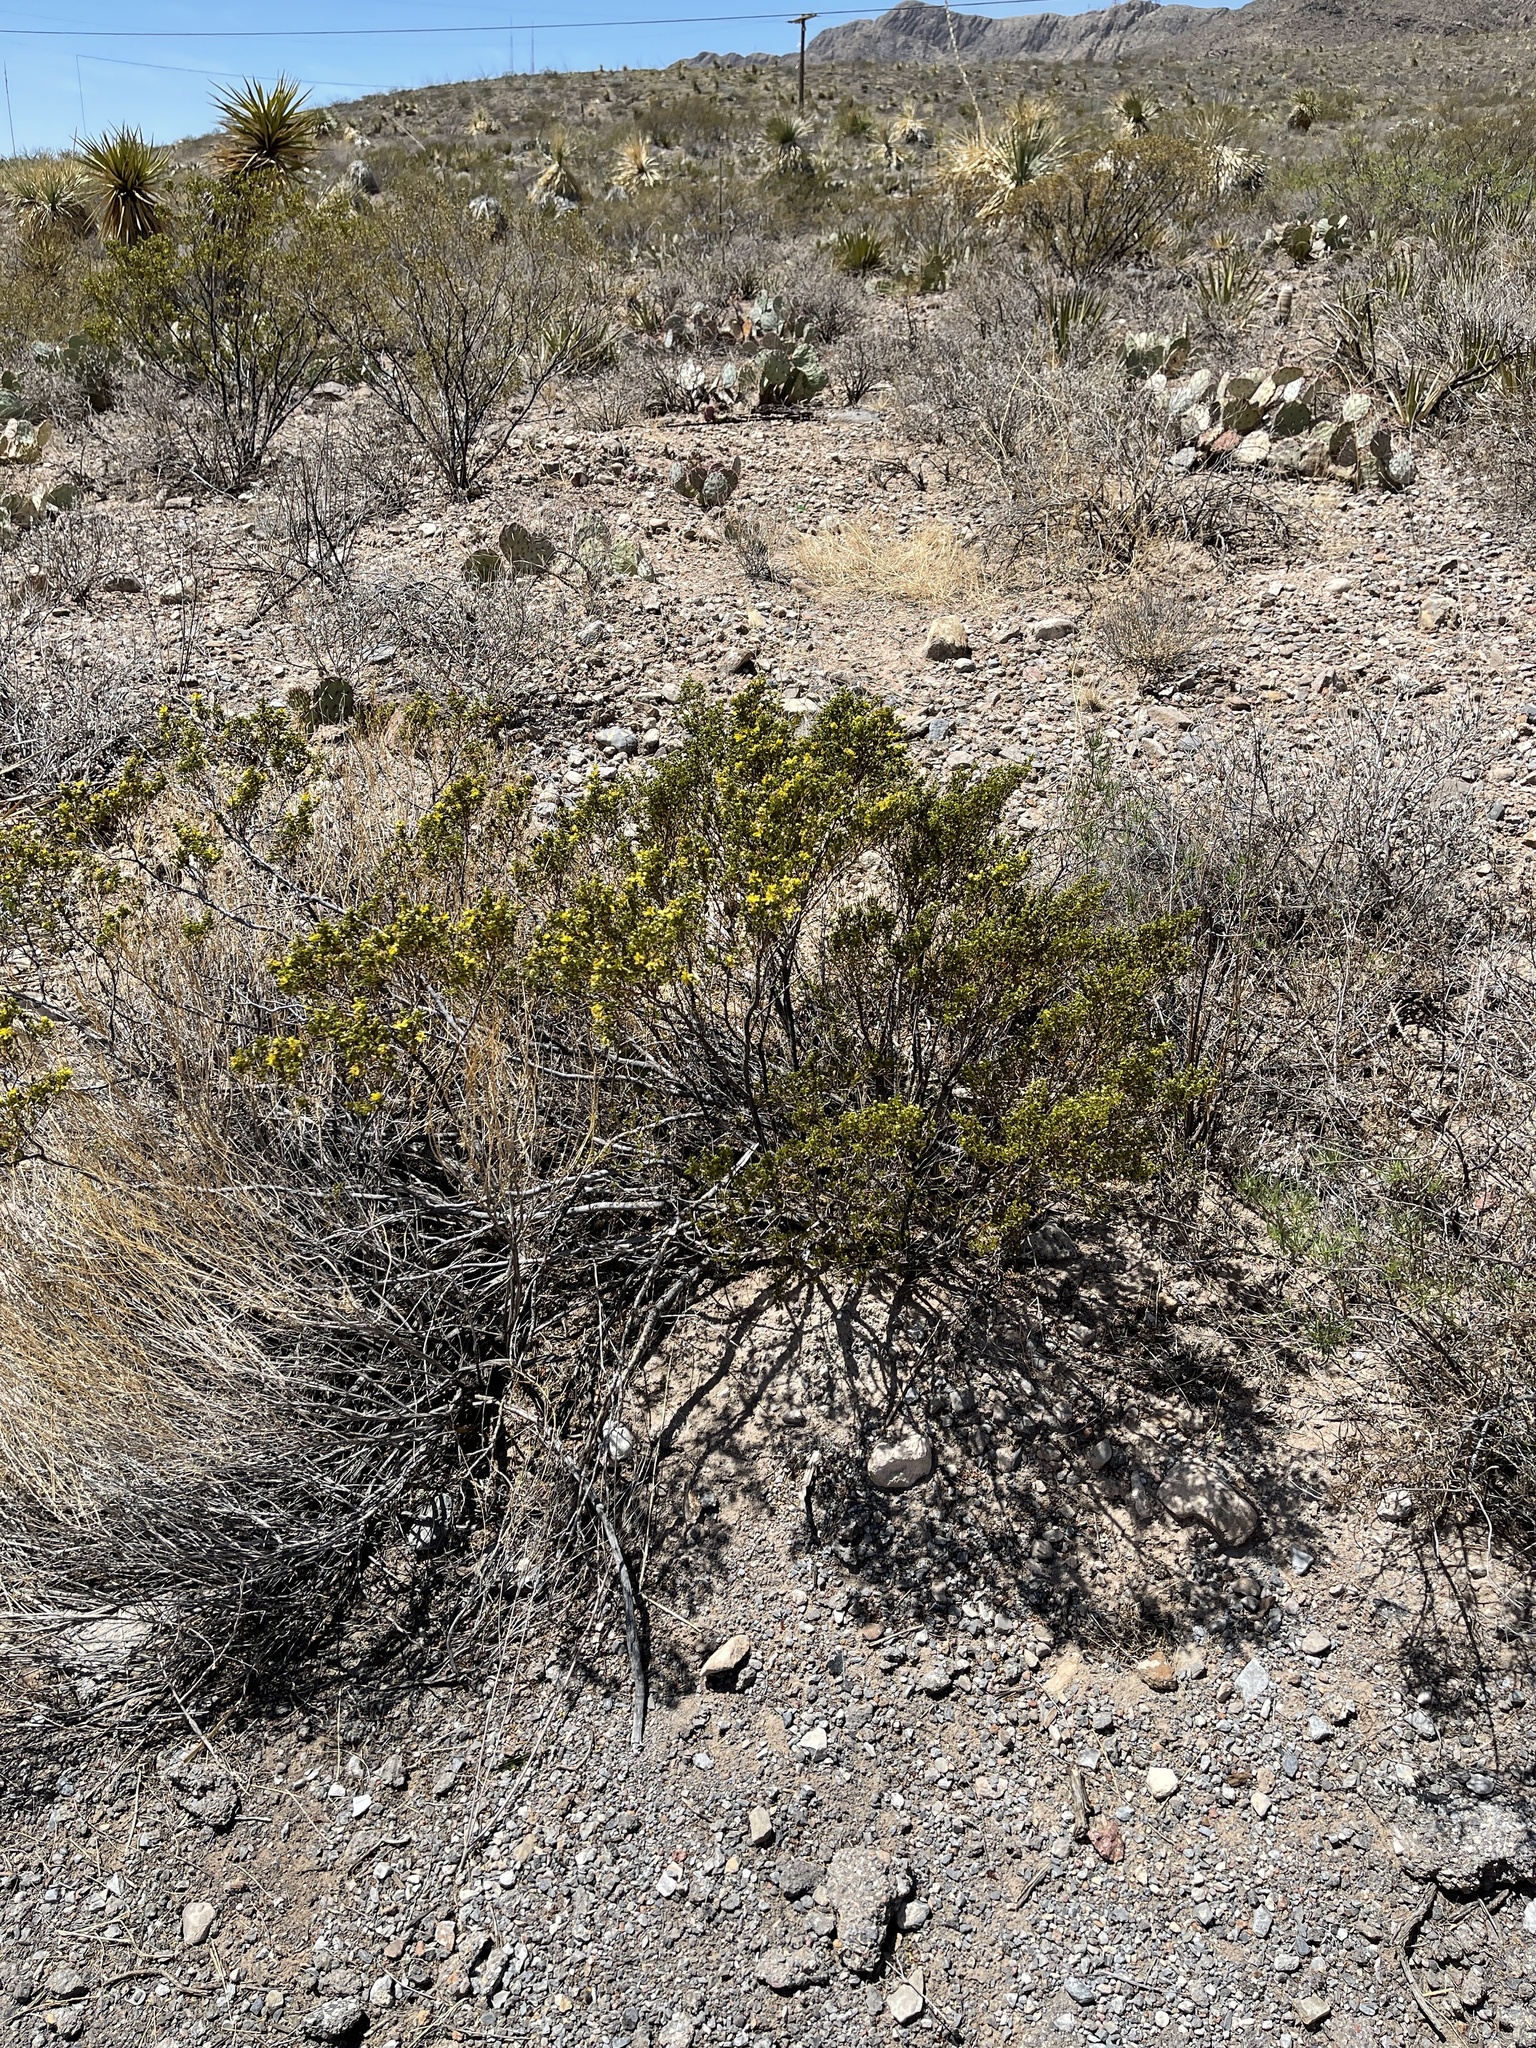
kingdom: Plantae
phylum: Tracheophyta
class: Magnoliopsida
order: Zygophyllales
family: Zygophyllaceae
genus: Larrea
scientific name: Larrea tridentata
